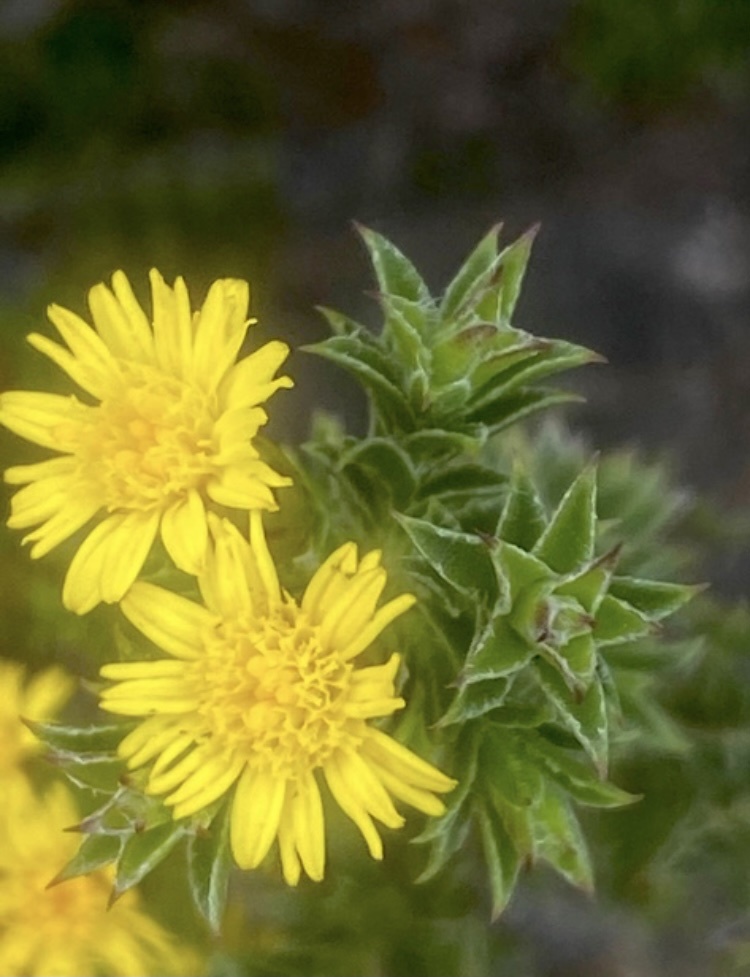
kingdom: Plantae
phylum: Tracheophyta
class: Magnoliopsida
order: Asterales
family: Asteraceae
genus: Oedera
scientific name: Oedera steyniae
